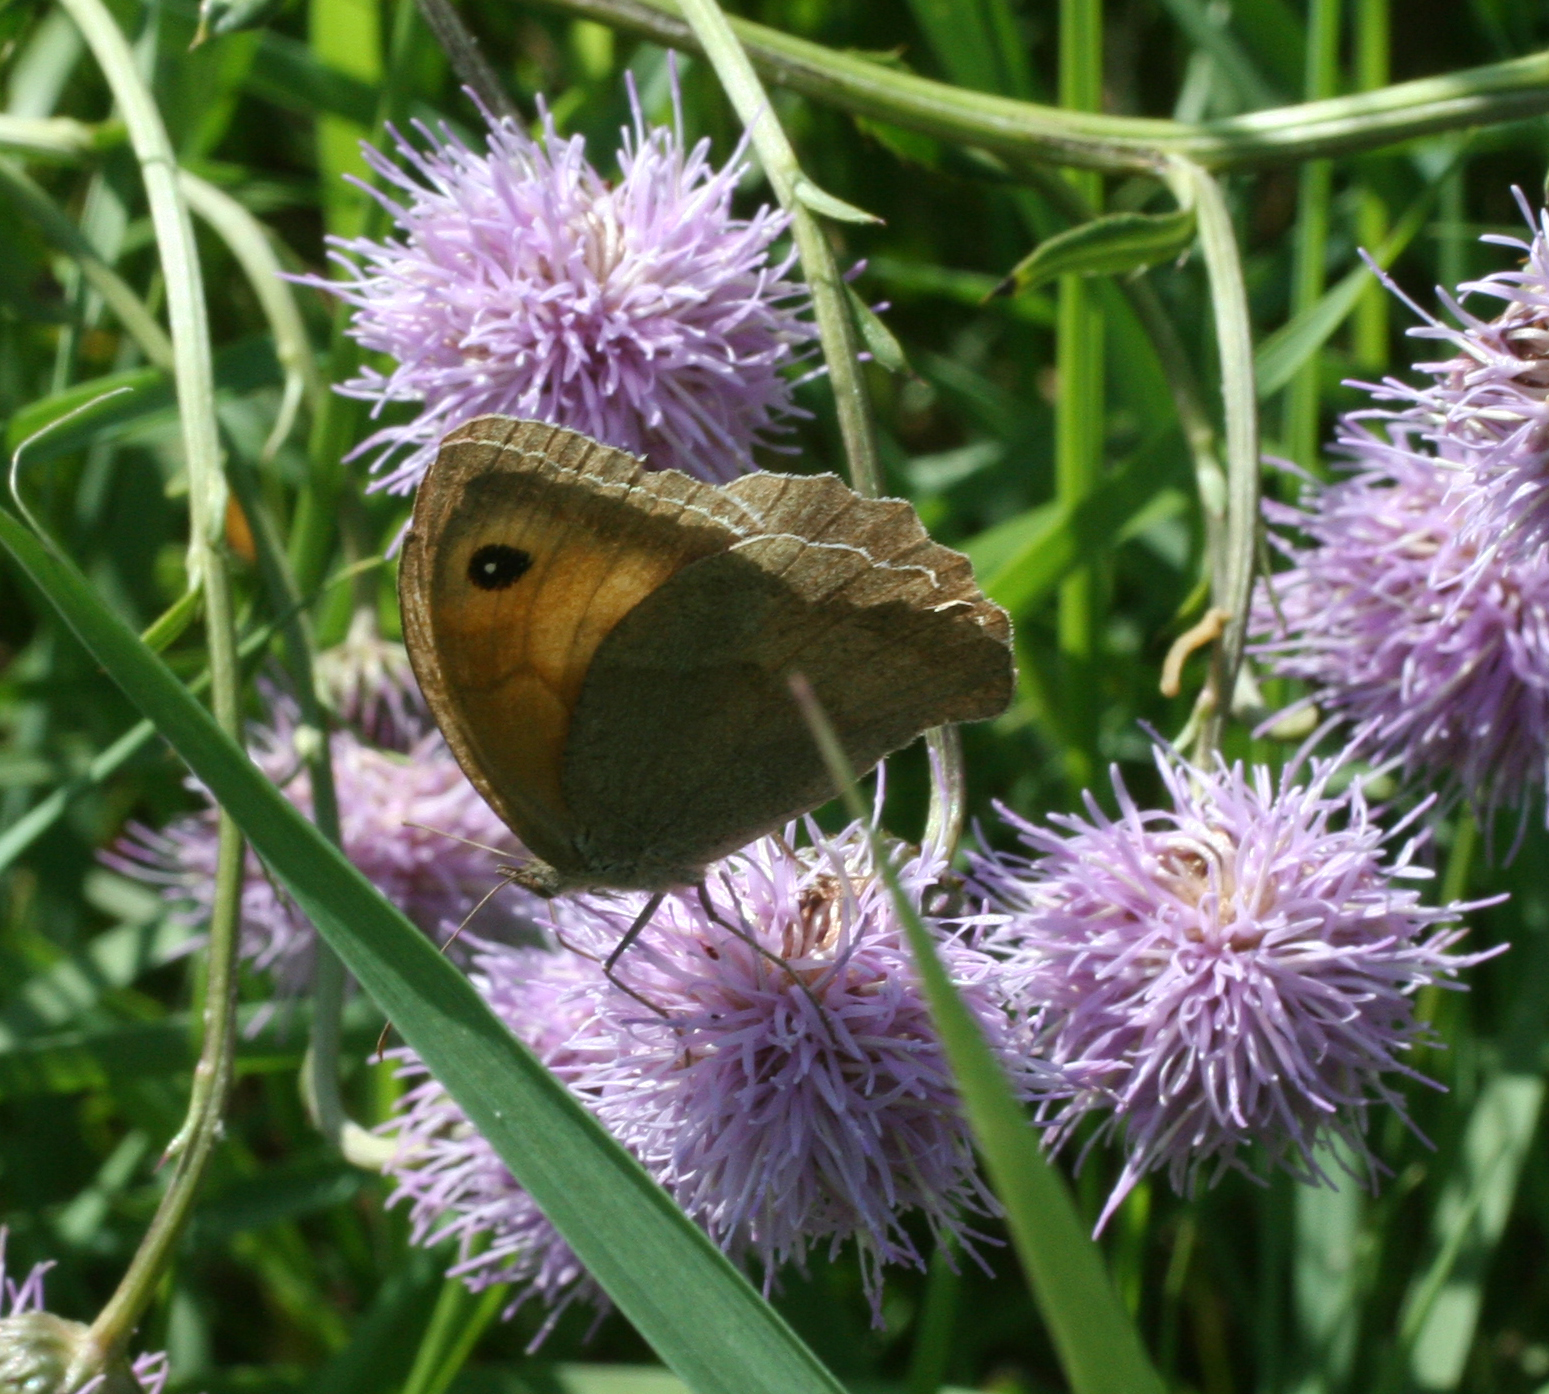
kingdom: Animalia
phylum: Arthropoda
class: Insecta
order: Lepidoptera
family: Nymphalidae
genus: Maniola
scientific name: Maniola jurtina
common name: Meadow brown
